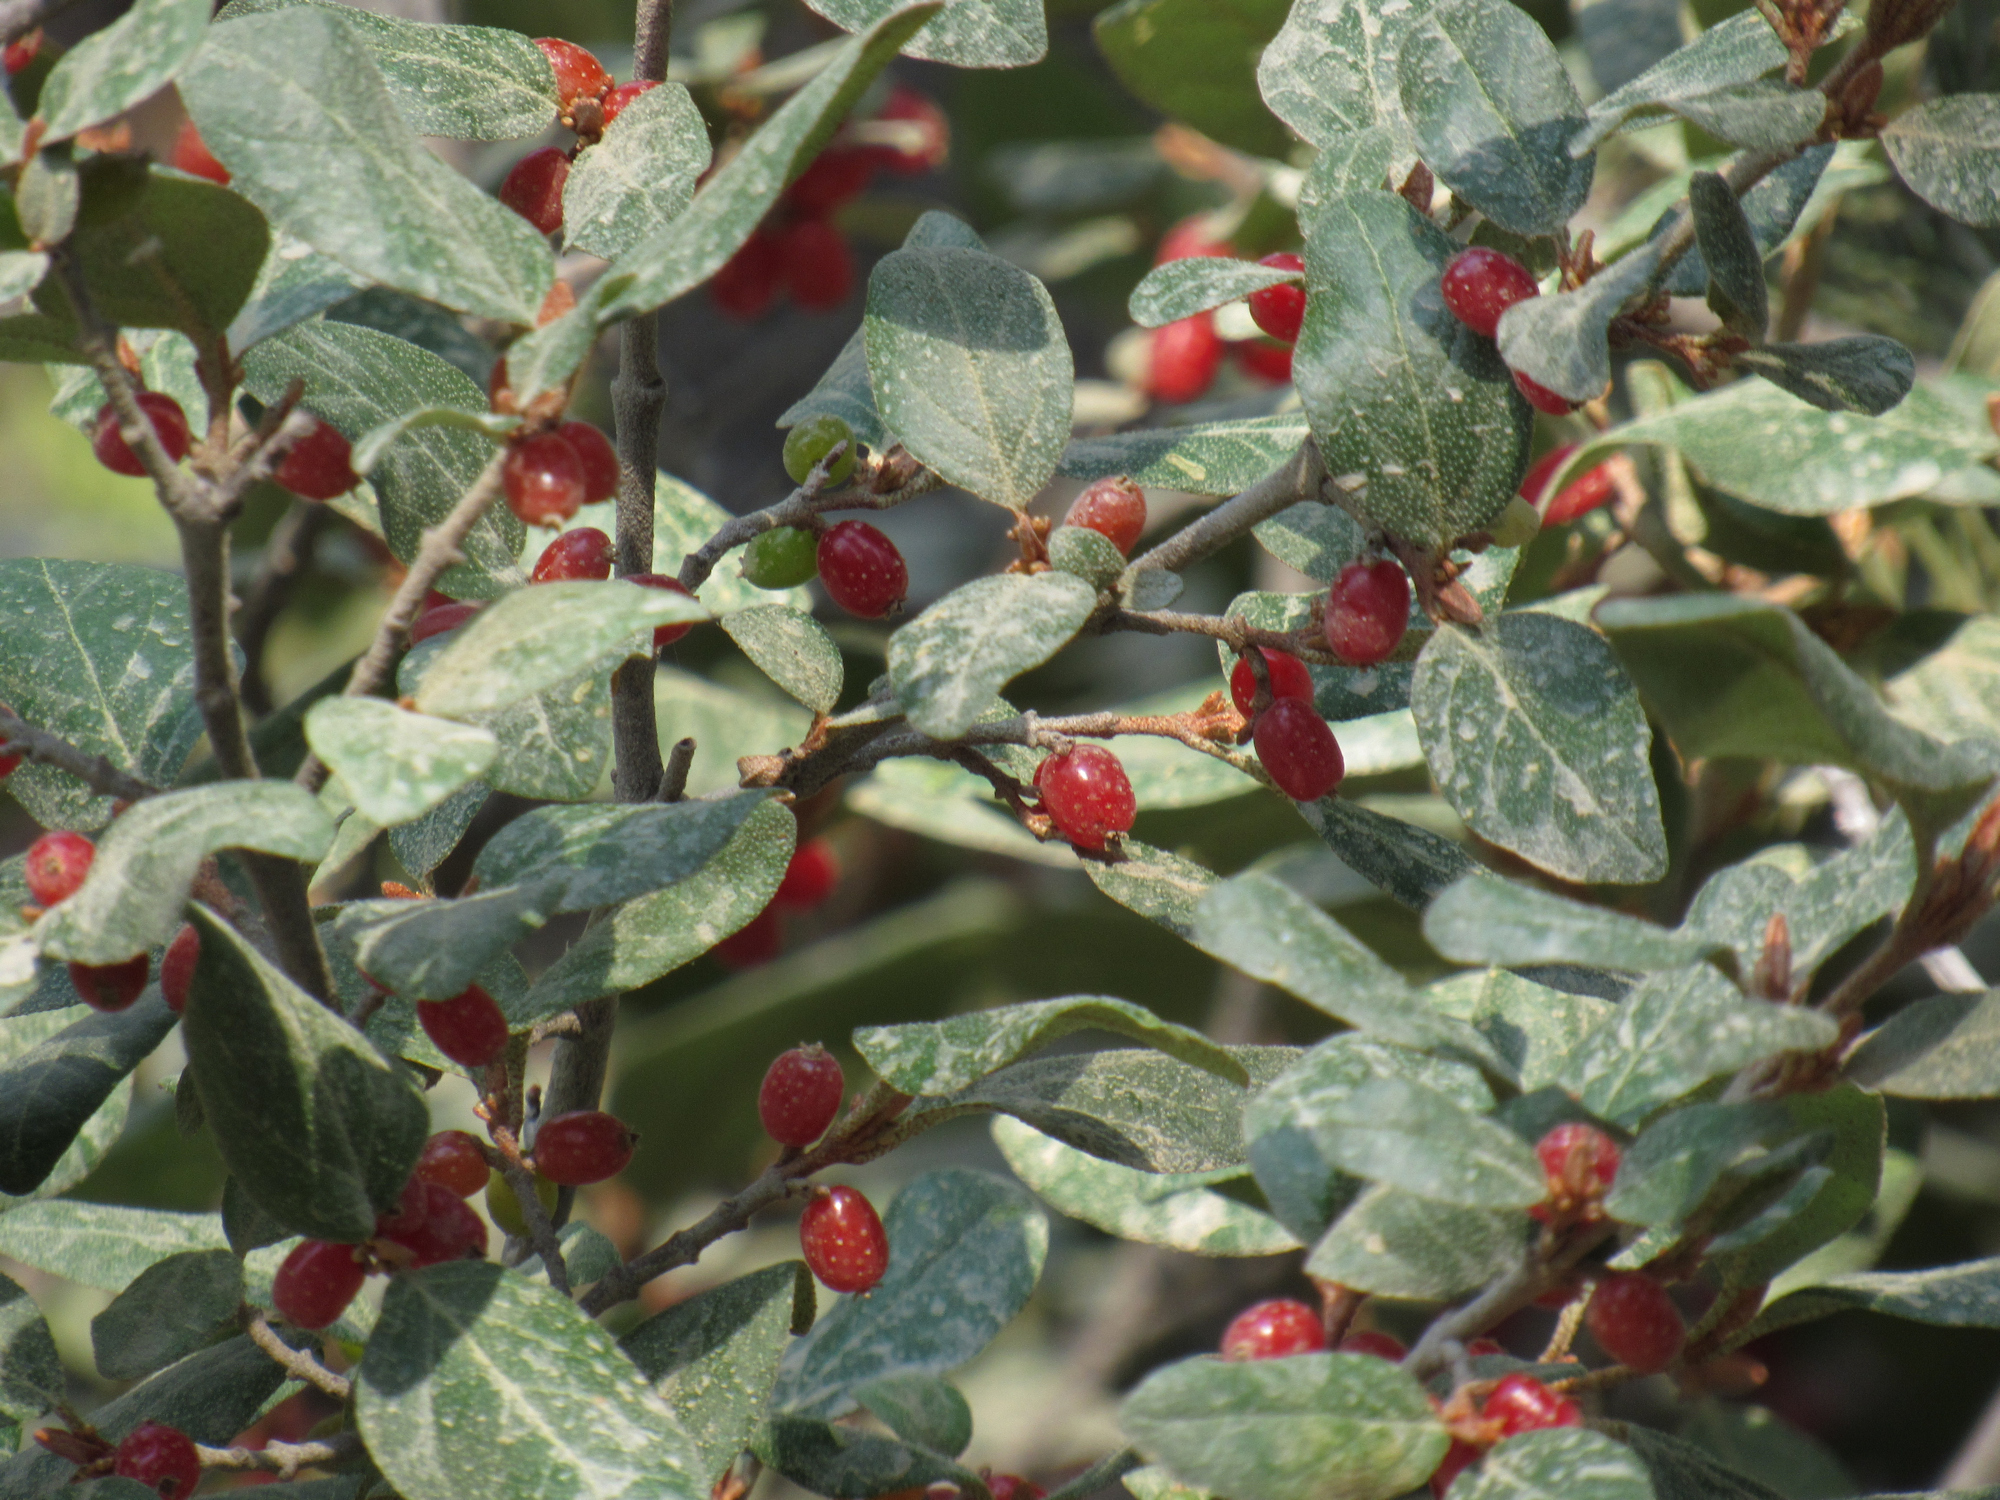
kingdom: Plantae
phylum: Tracheophyta
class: Magnoliopsida
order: Rosales
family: Elaeagnaceae
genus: Shepherdia
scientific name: Shepherdia canadensis
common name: Soapberry
